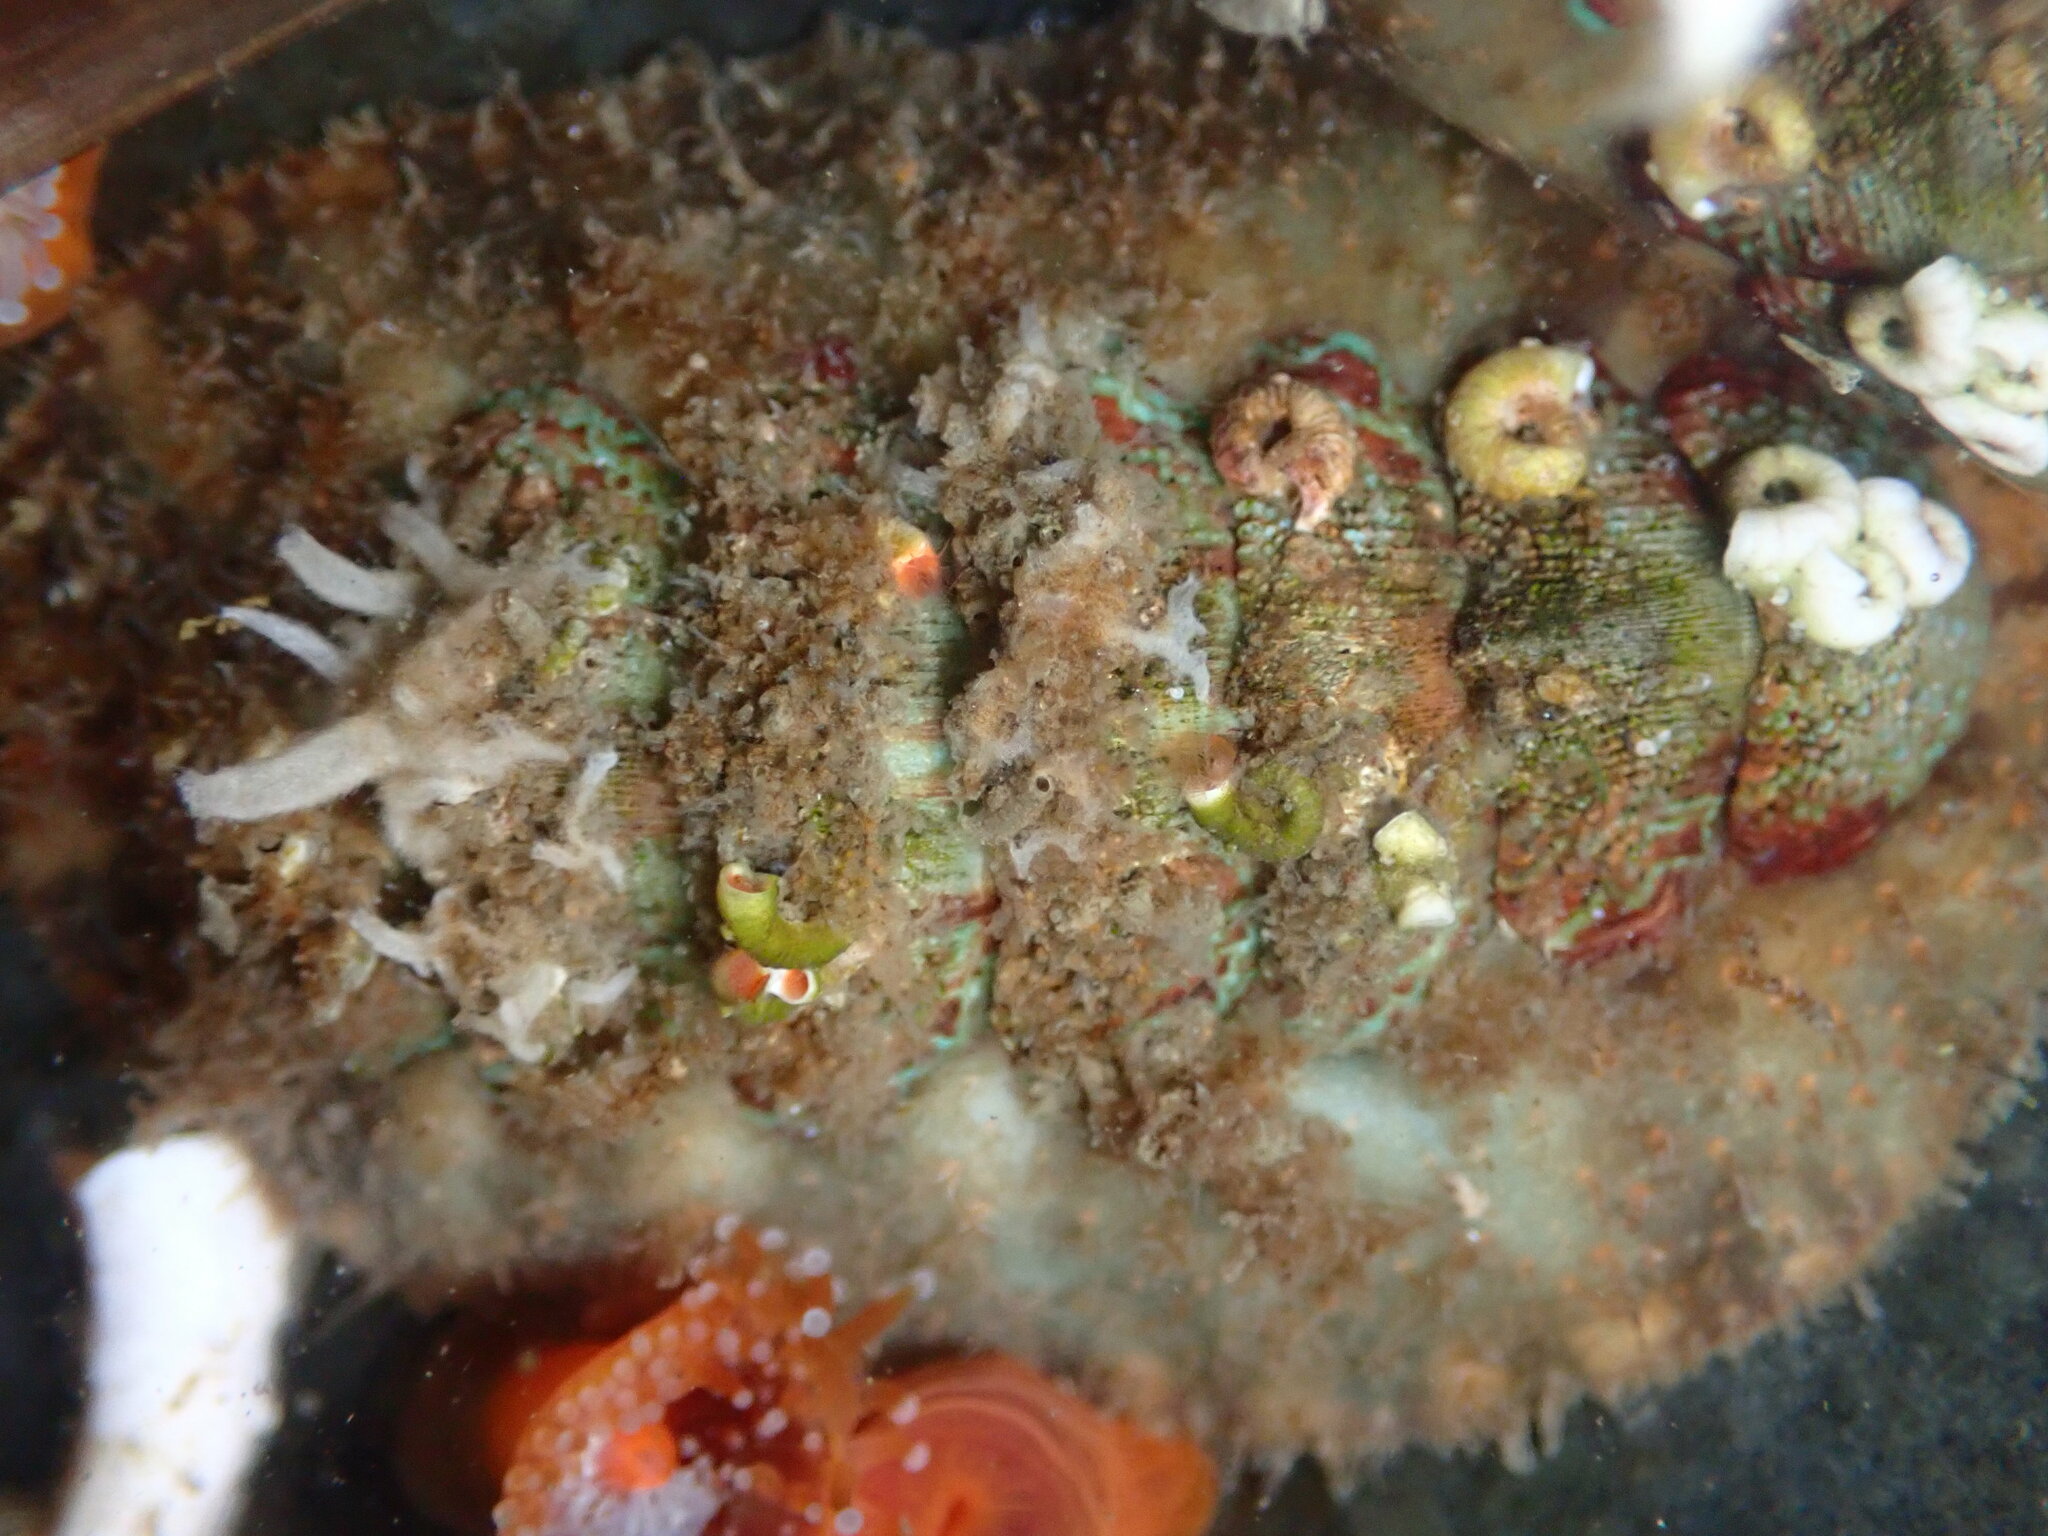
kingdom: Animalia
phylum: Mollusca
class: Polyplacophora
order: Chitonida
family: Mopaliidae
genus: Mopalia
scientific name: Mopalia spectabilis
